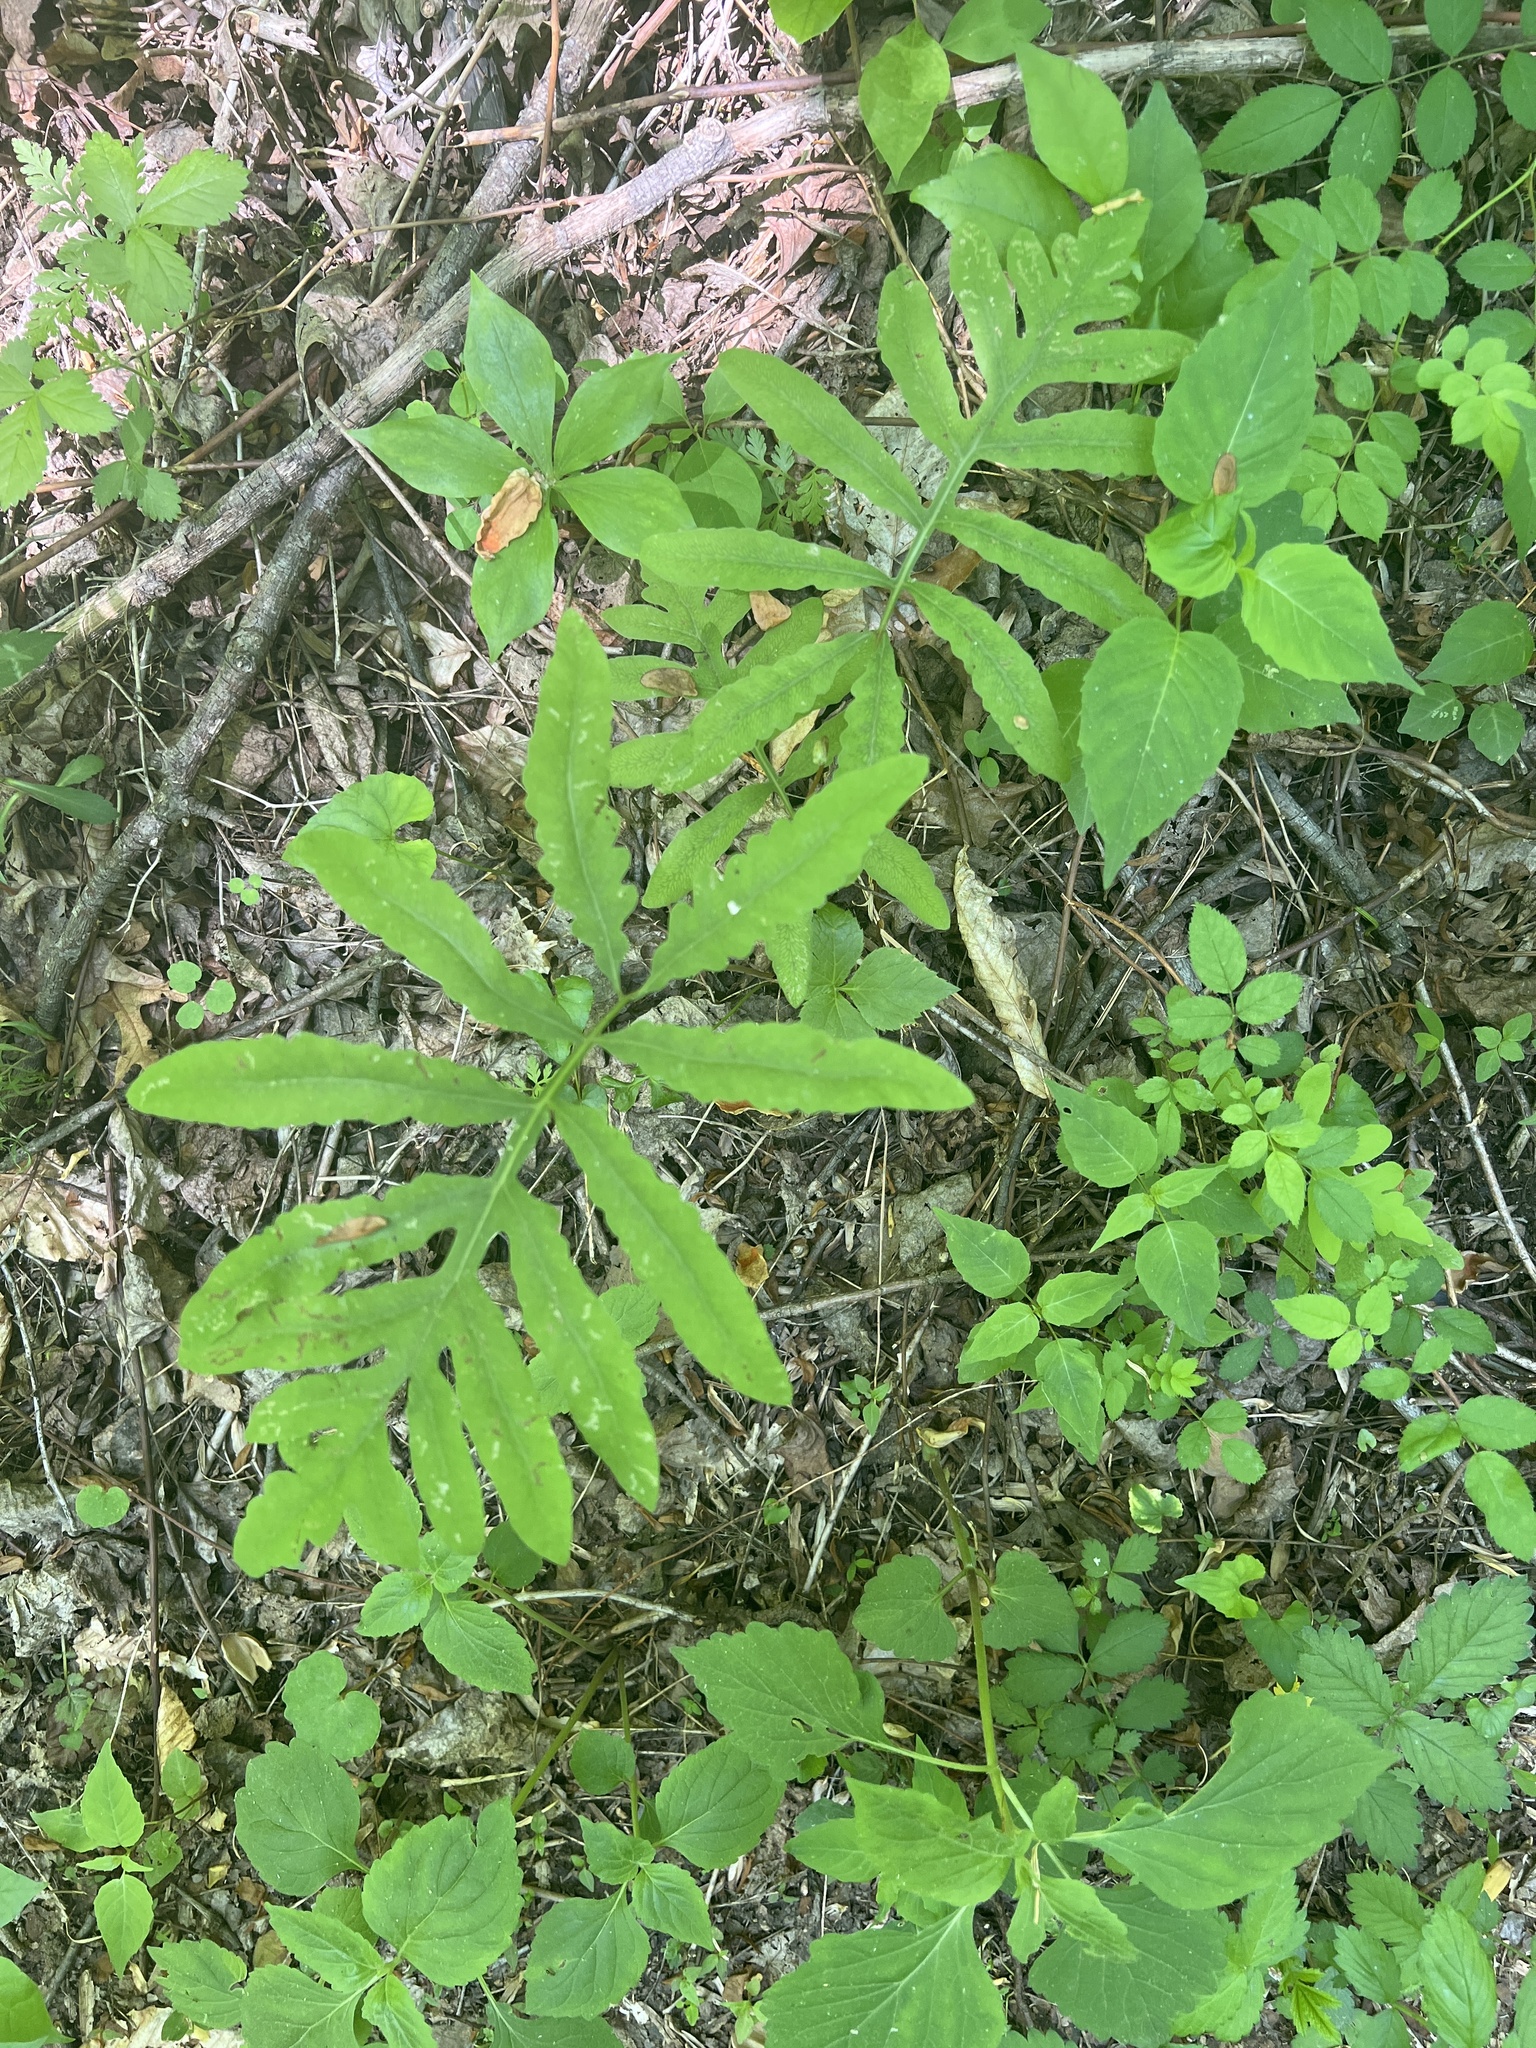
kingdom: Plantae
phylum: Tracheophyta
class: Polypodiopsida
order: Polypodiales
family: Onocleaceae
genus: Onoclea
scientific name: Onoclea sensibilis
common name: Sensitive fern
